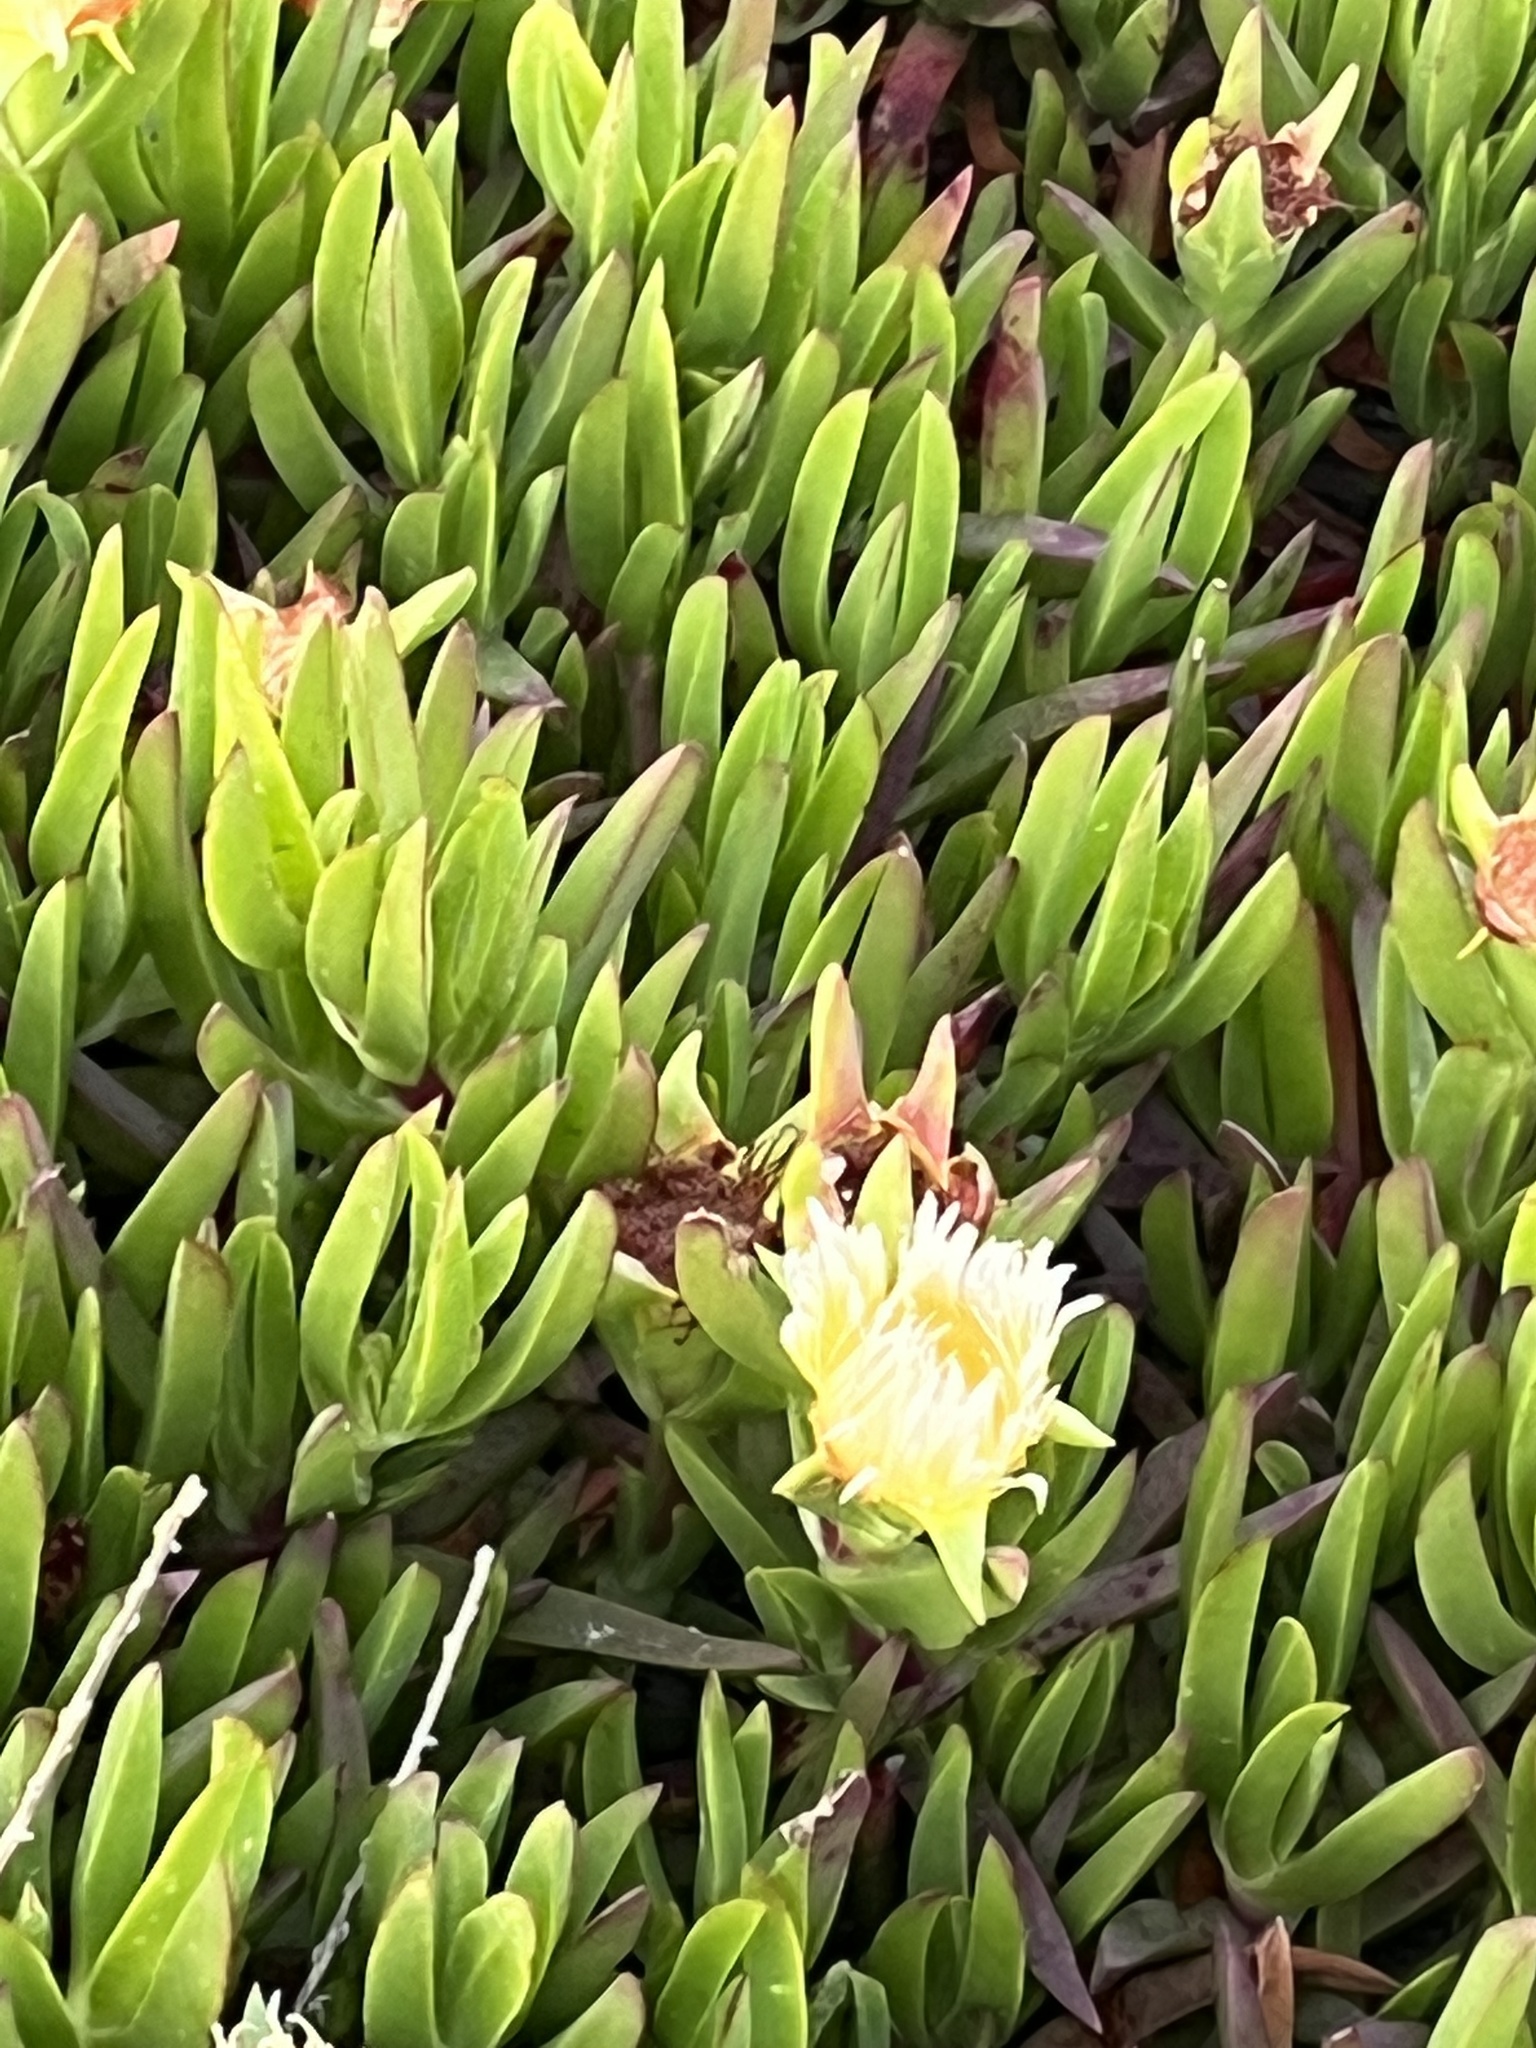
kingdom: Plantae
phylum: Tracheophyta
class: Magnoliopsida
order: Caryophyllales
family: Aizoaceae
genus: Carpobrotus
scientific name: Carpobrotus edulis
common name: Hottentot-fig
